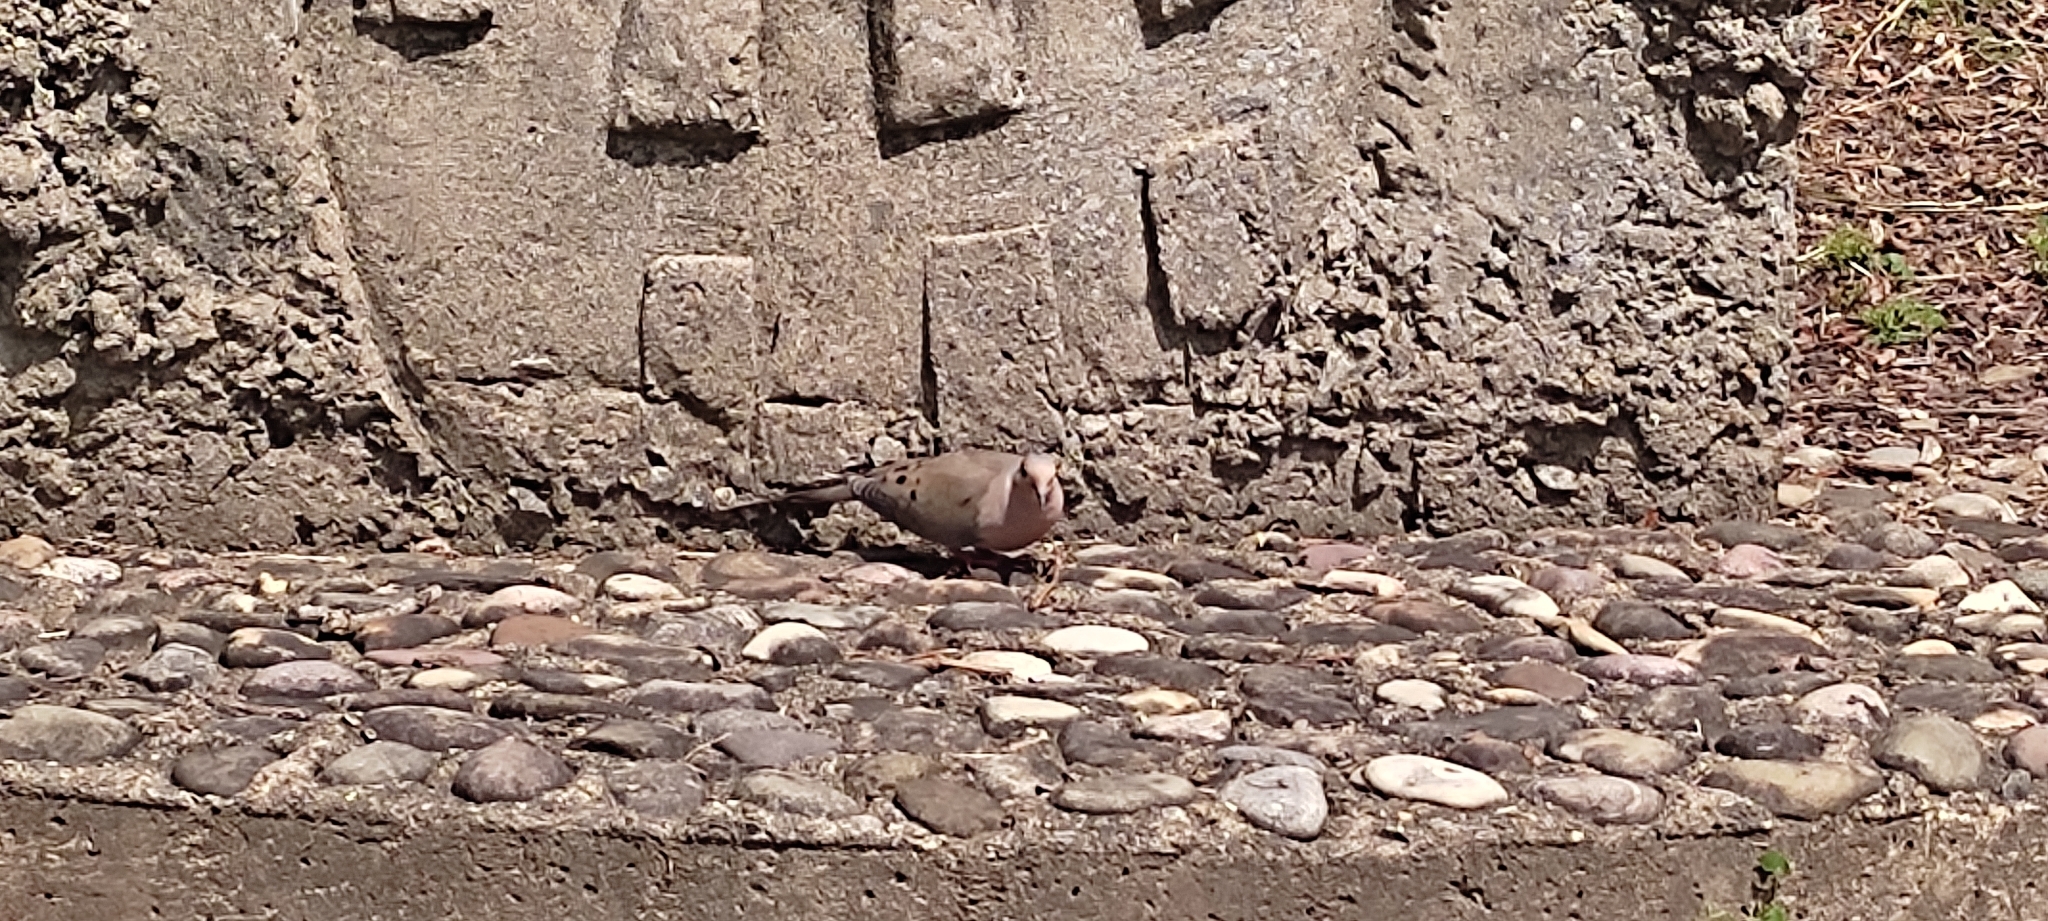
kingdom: Animalia
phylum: Chordata
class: Aves
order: Columbiformes
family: Columbidae
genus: Zenaida
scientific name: Zenaida macroura
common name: Mourning dove
